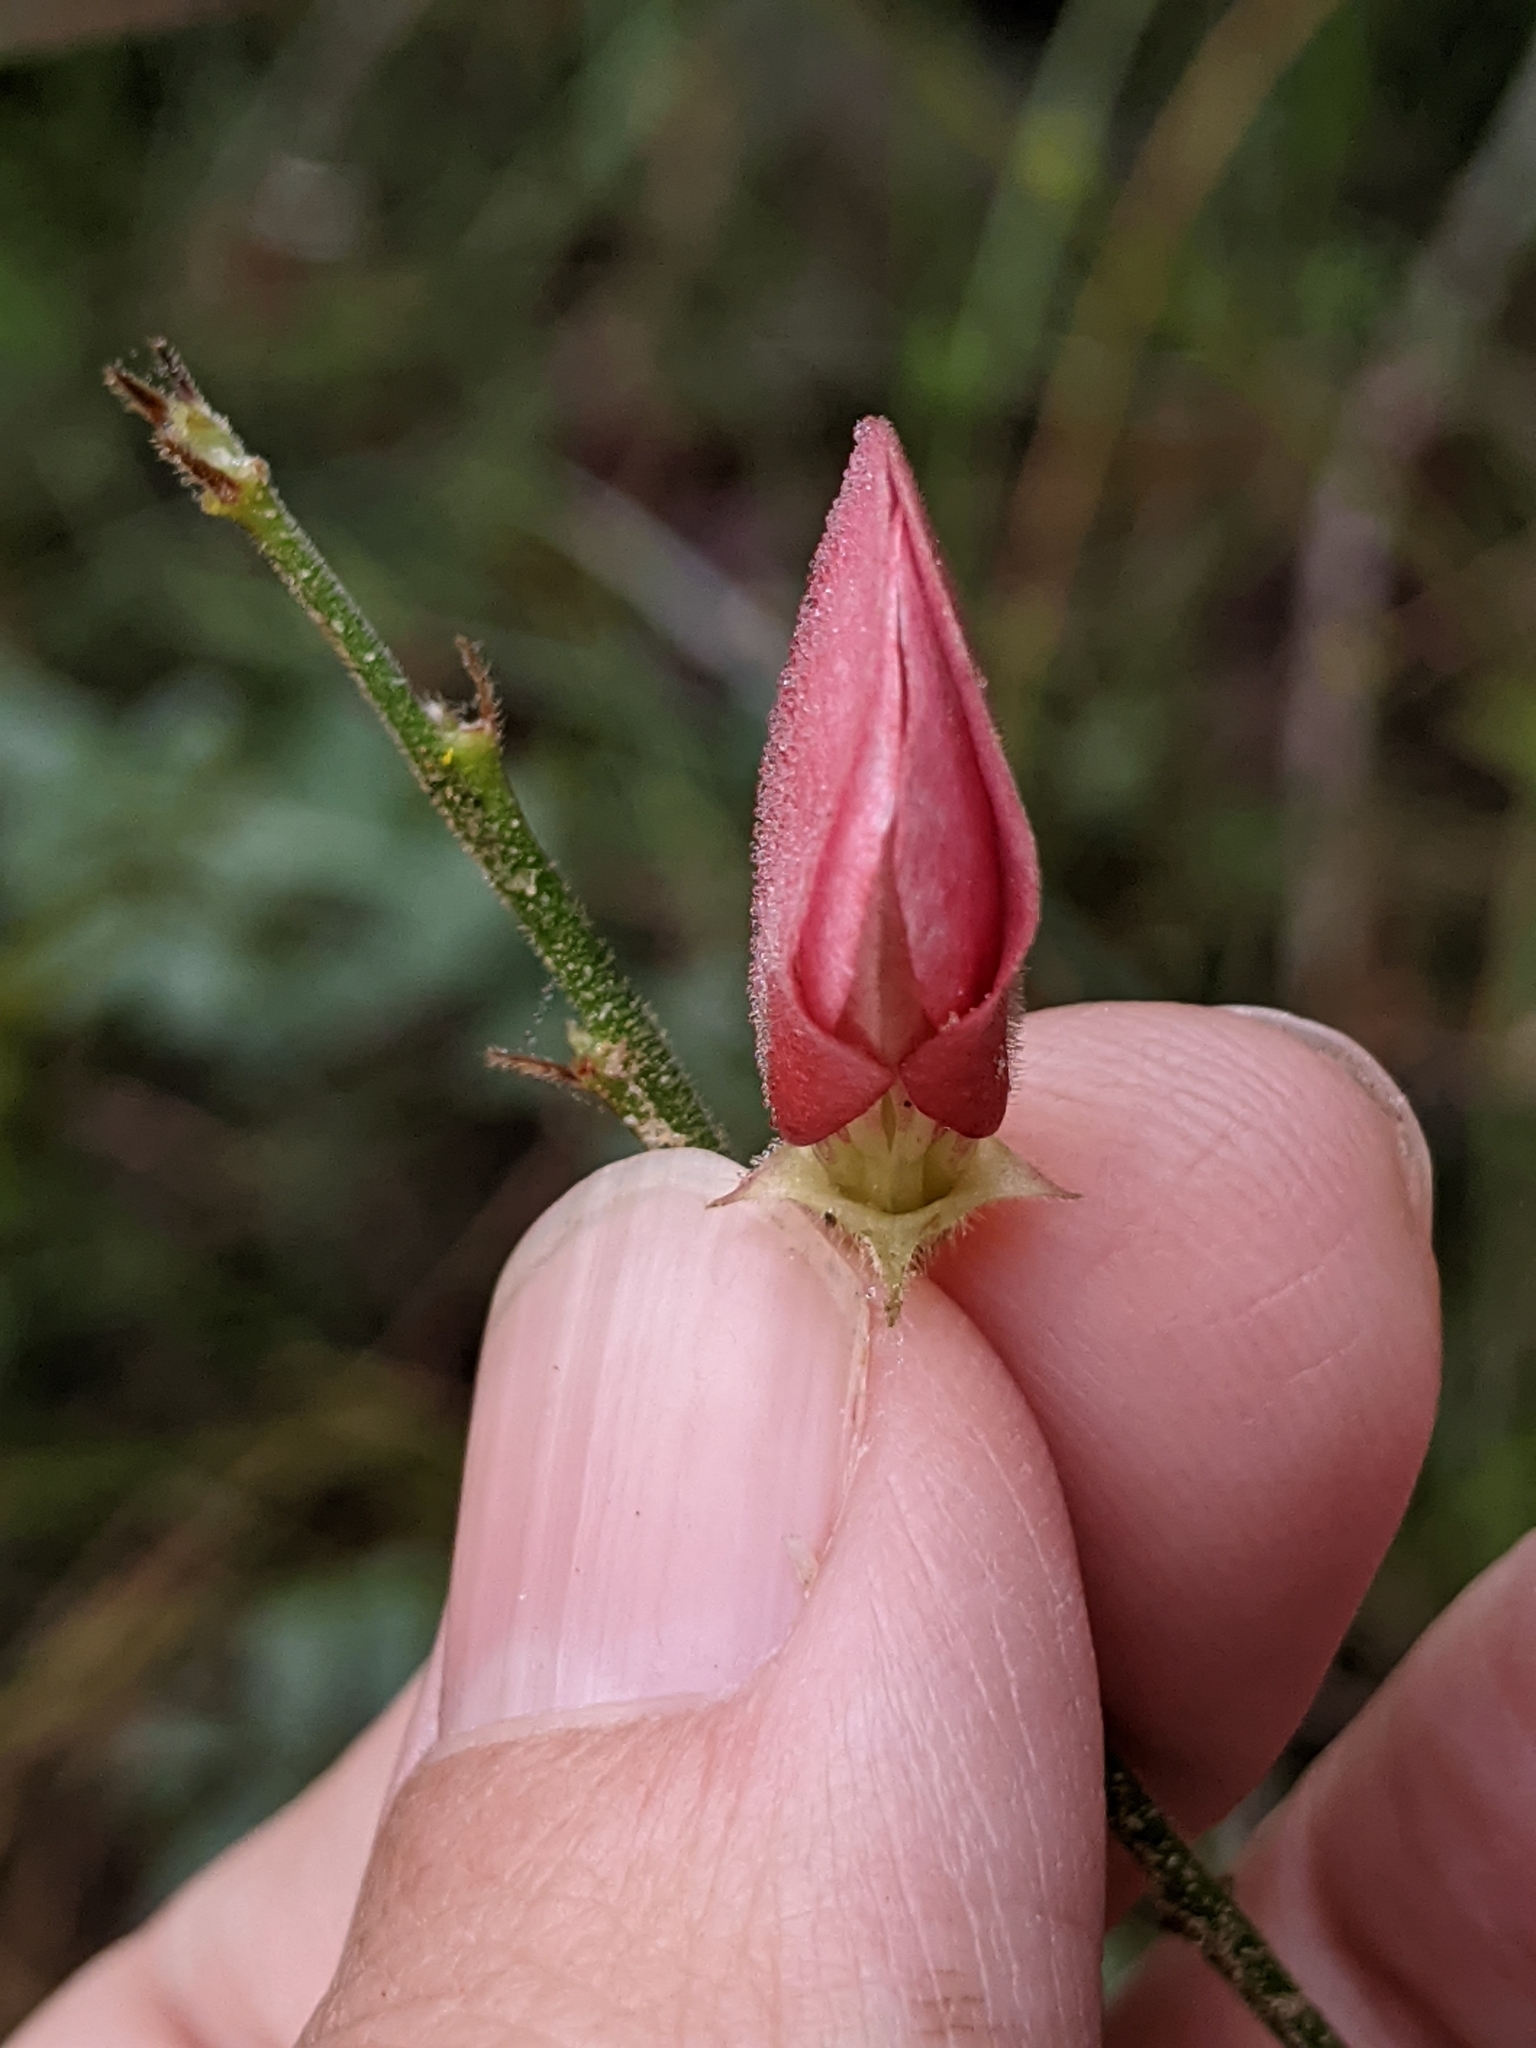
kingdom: Plantae
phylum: Tracheophyta
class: Magnoliopsida
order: Fabales
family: Fabaceae
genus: Tephrosia
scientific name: Tephrosia onobrychoides
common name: Multi-bloom hoary-pea
